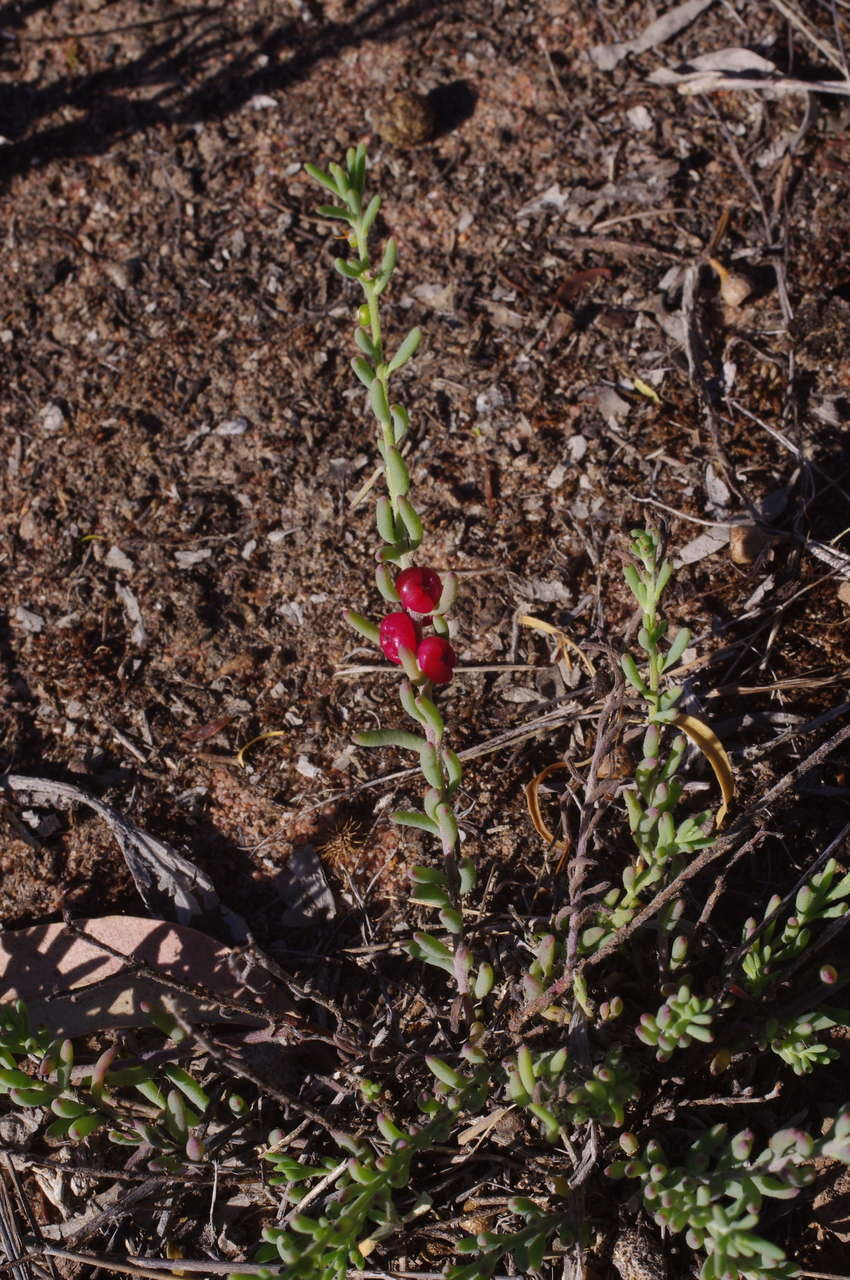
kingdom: Plantae
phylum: Tracheophyta
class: Magnoliopsida
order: Caryophyllales
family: Amaranthaceae
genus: Enchylaena
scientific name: Enchylaena tomentosa
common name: Ruby saltbush
